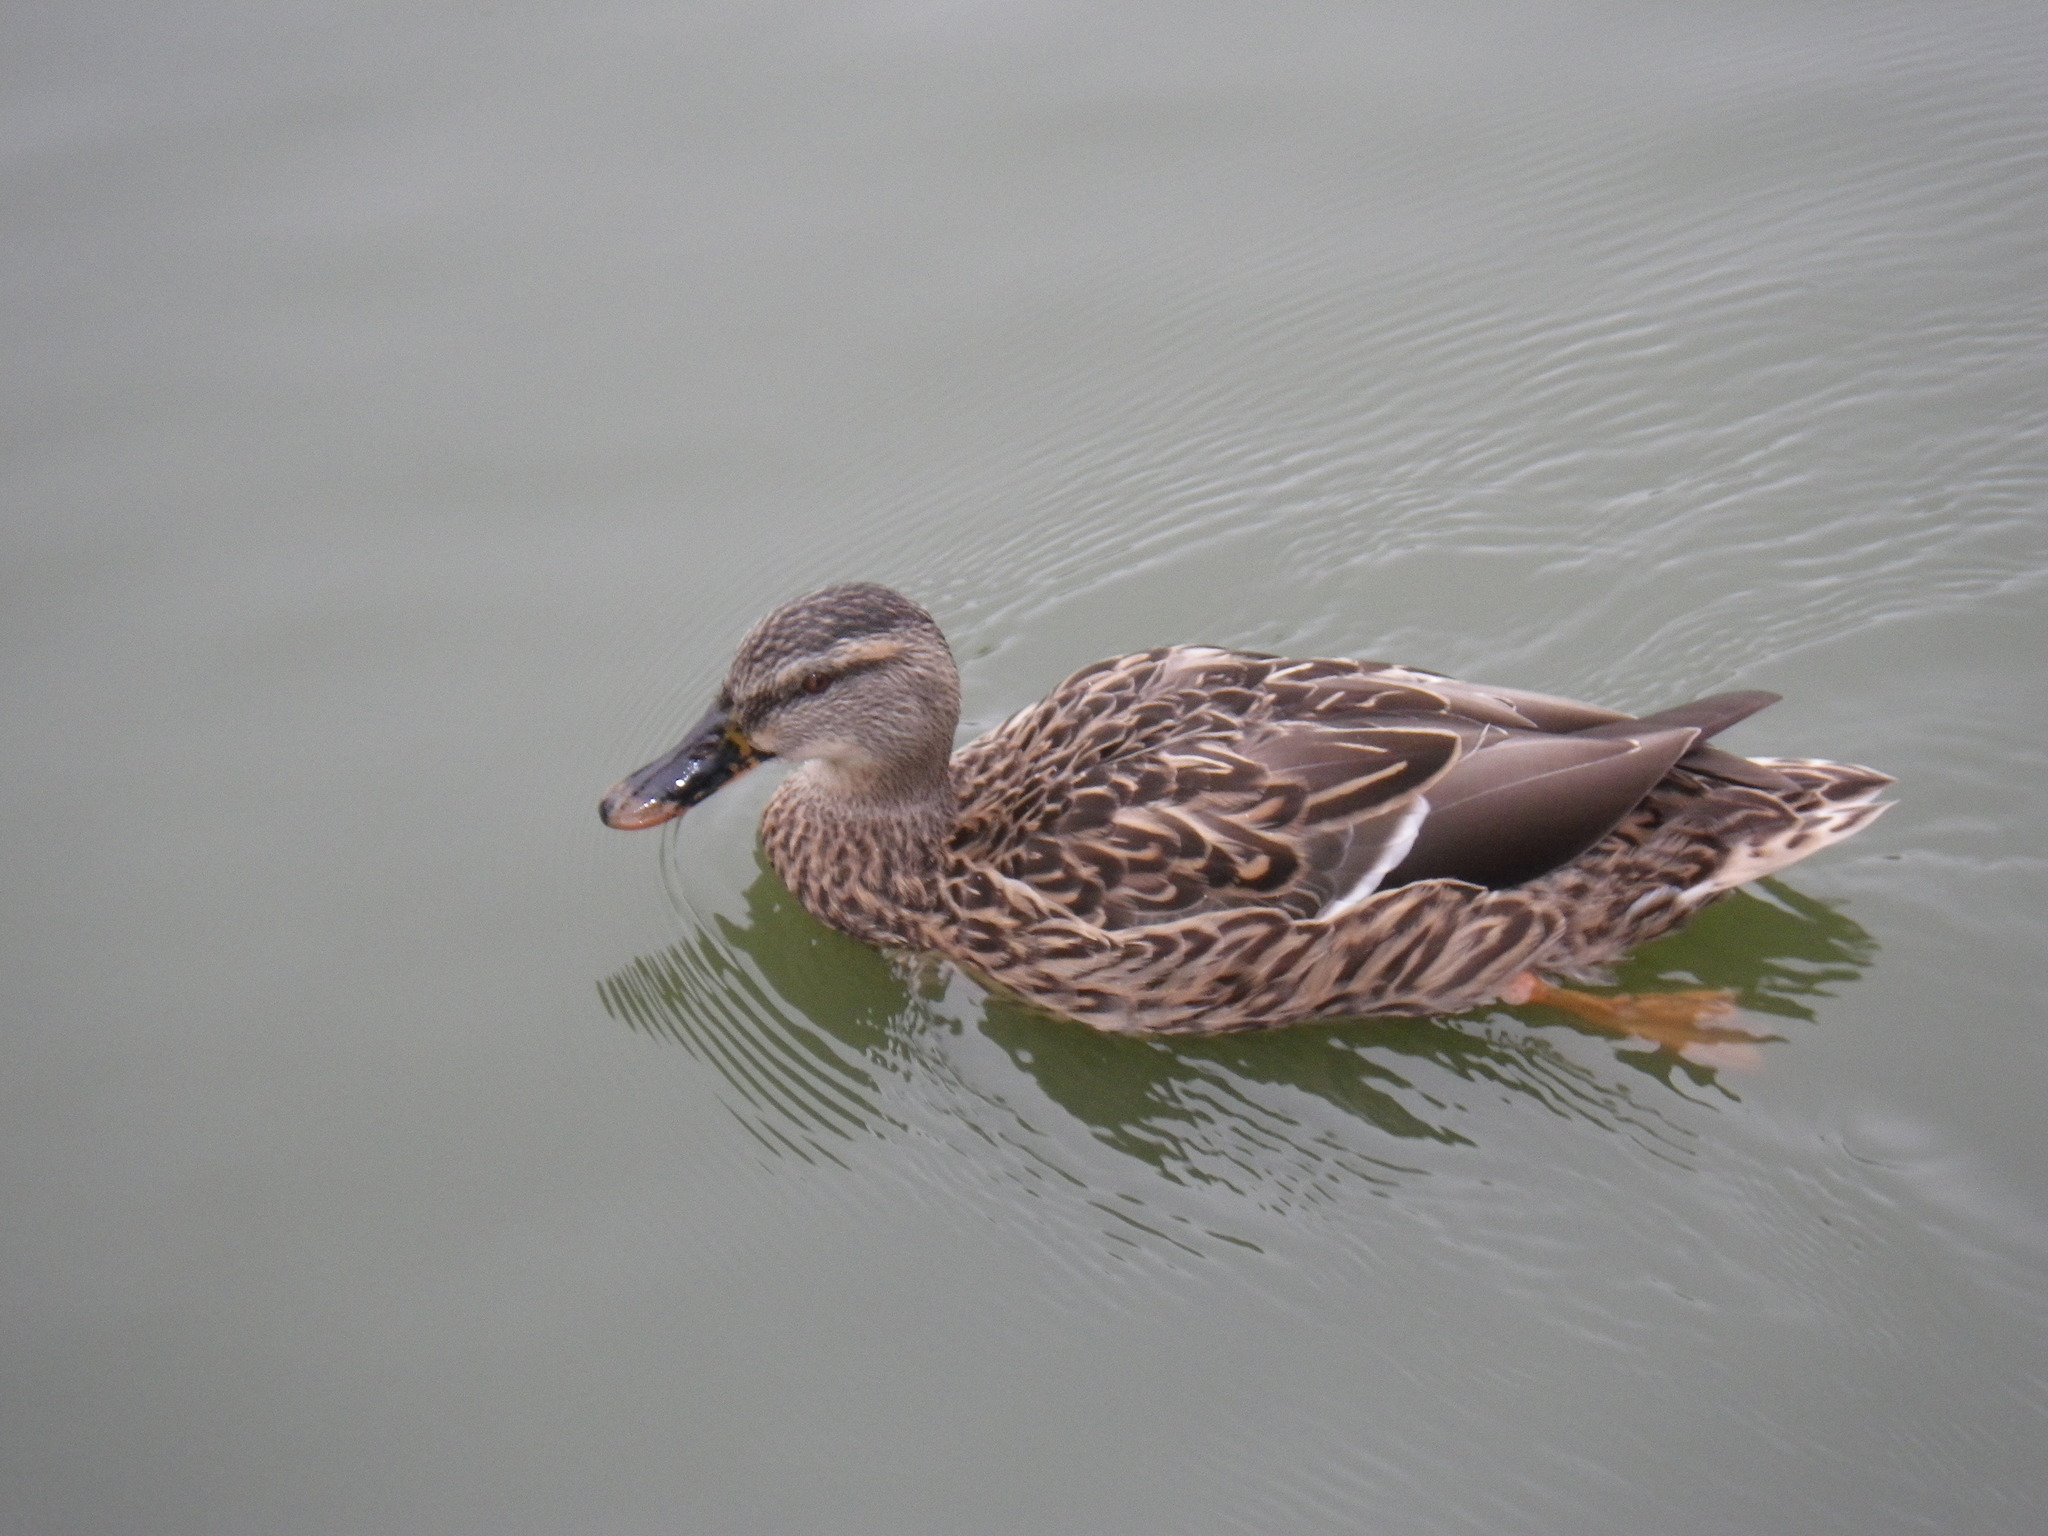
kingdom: Animalia
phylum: Chordata
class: Aves
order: Anseriformes
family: Anatidae
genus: Anas
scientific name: Anas platyrhynchos
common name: Mallard
